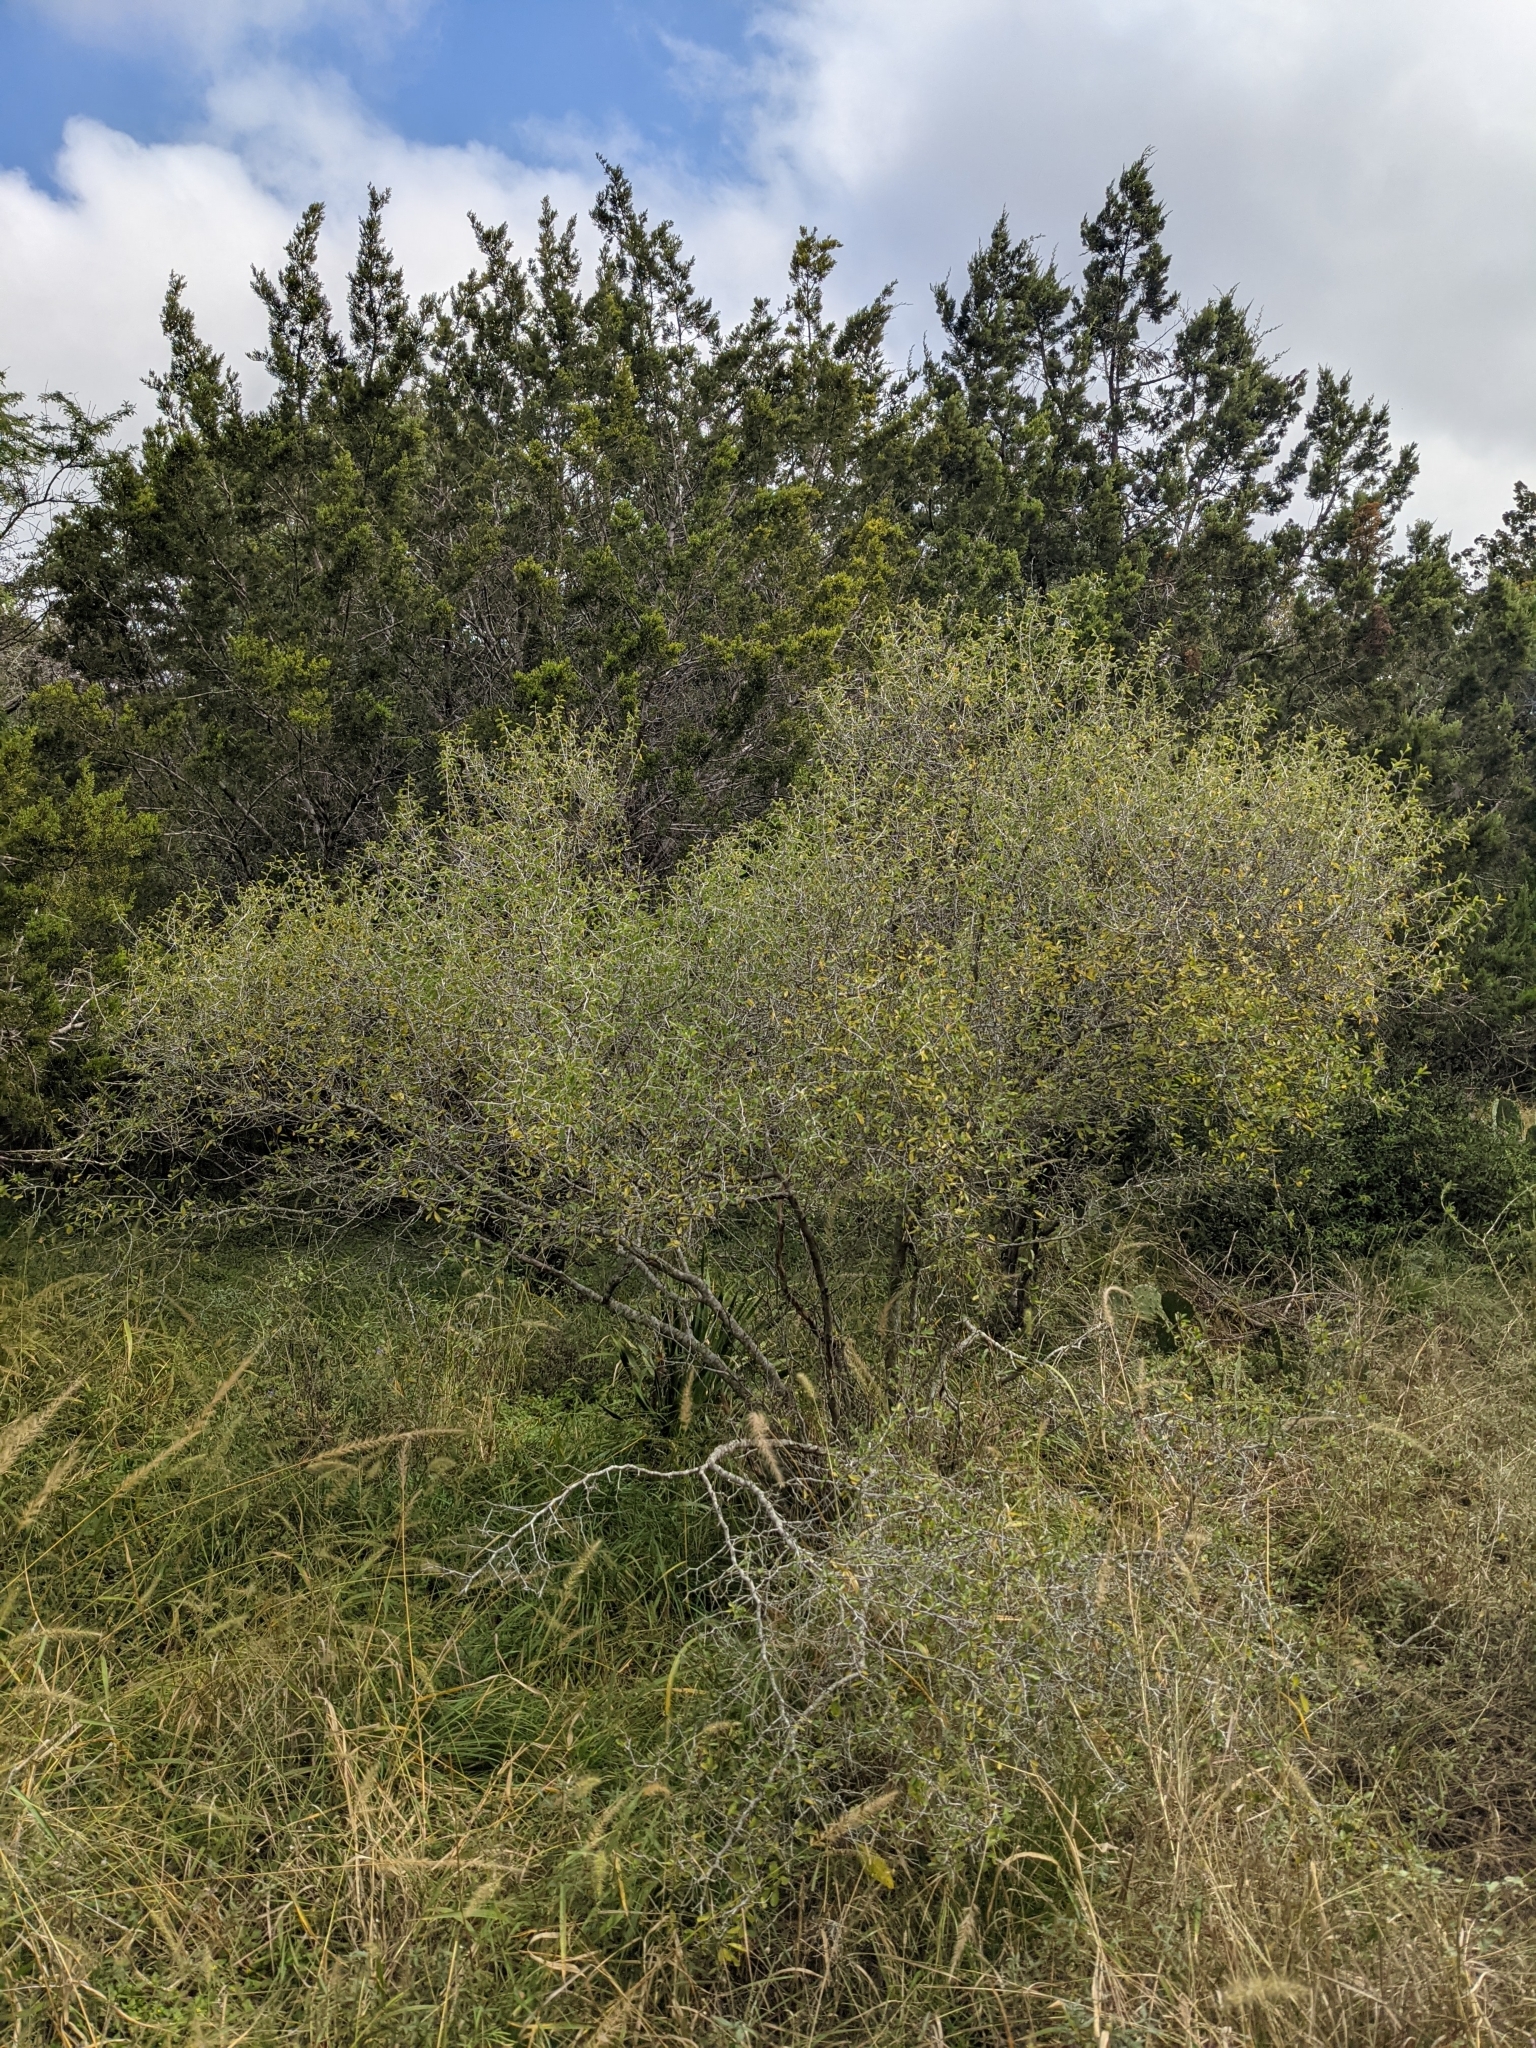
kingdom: Plantae
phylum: Tracheophyta
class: Magnoliopsida
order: Rosales
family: Rhamnaceae
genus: Colubrina
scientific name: Colubrina texensis
